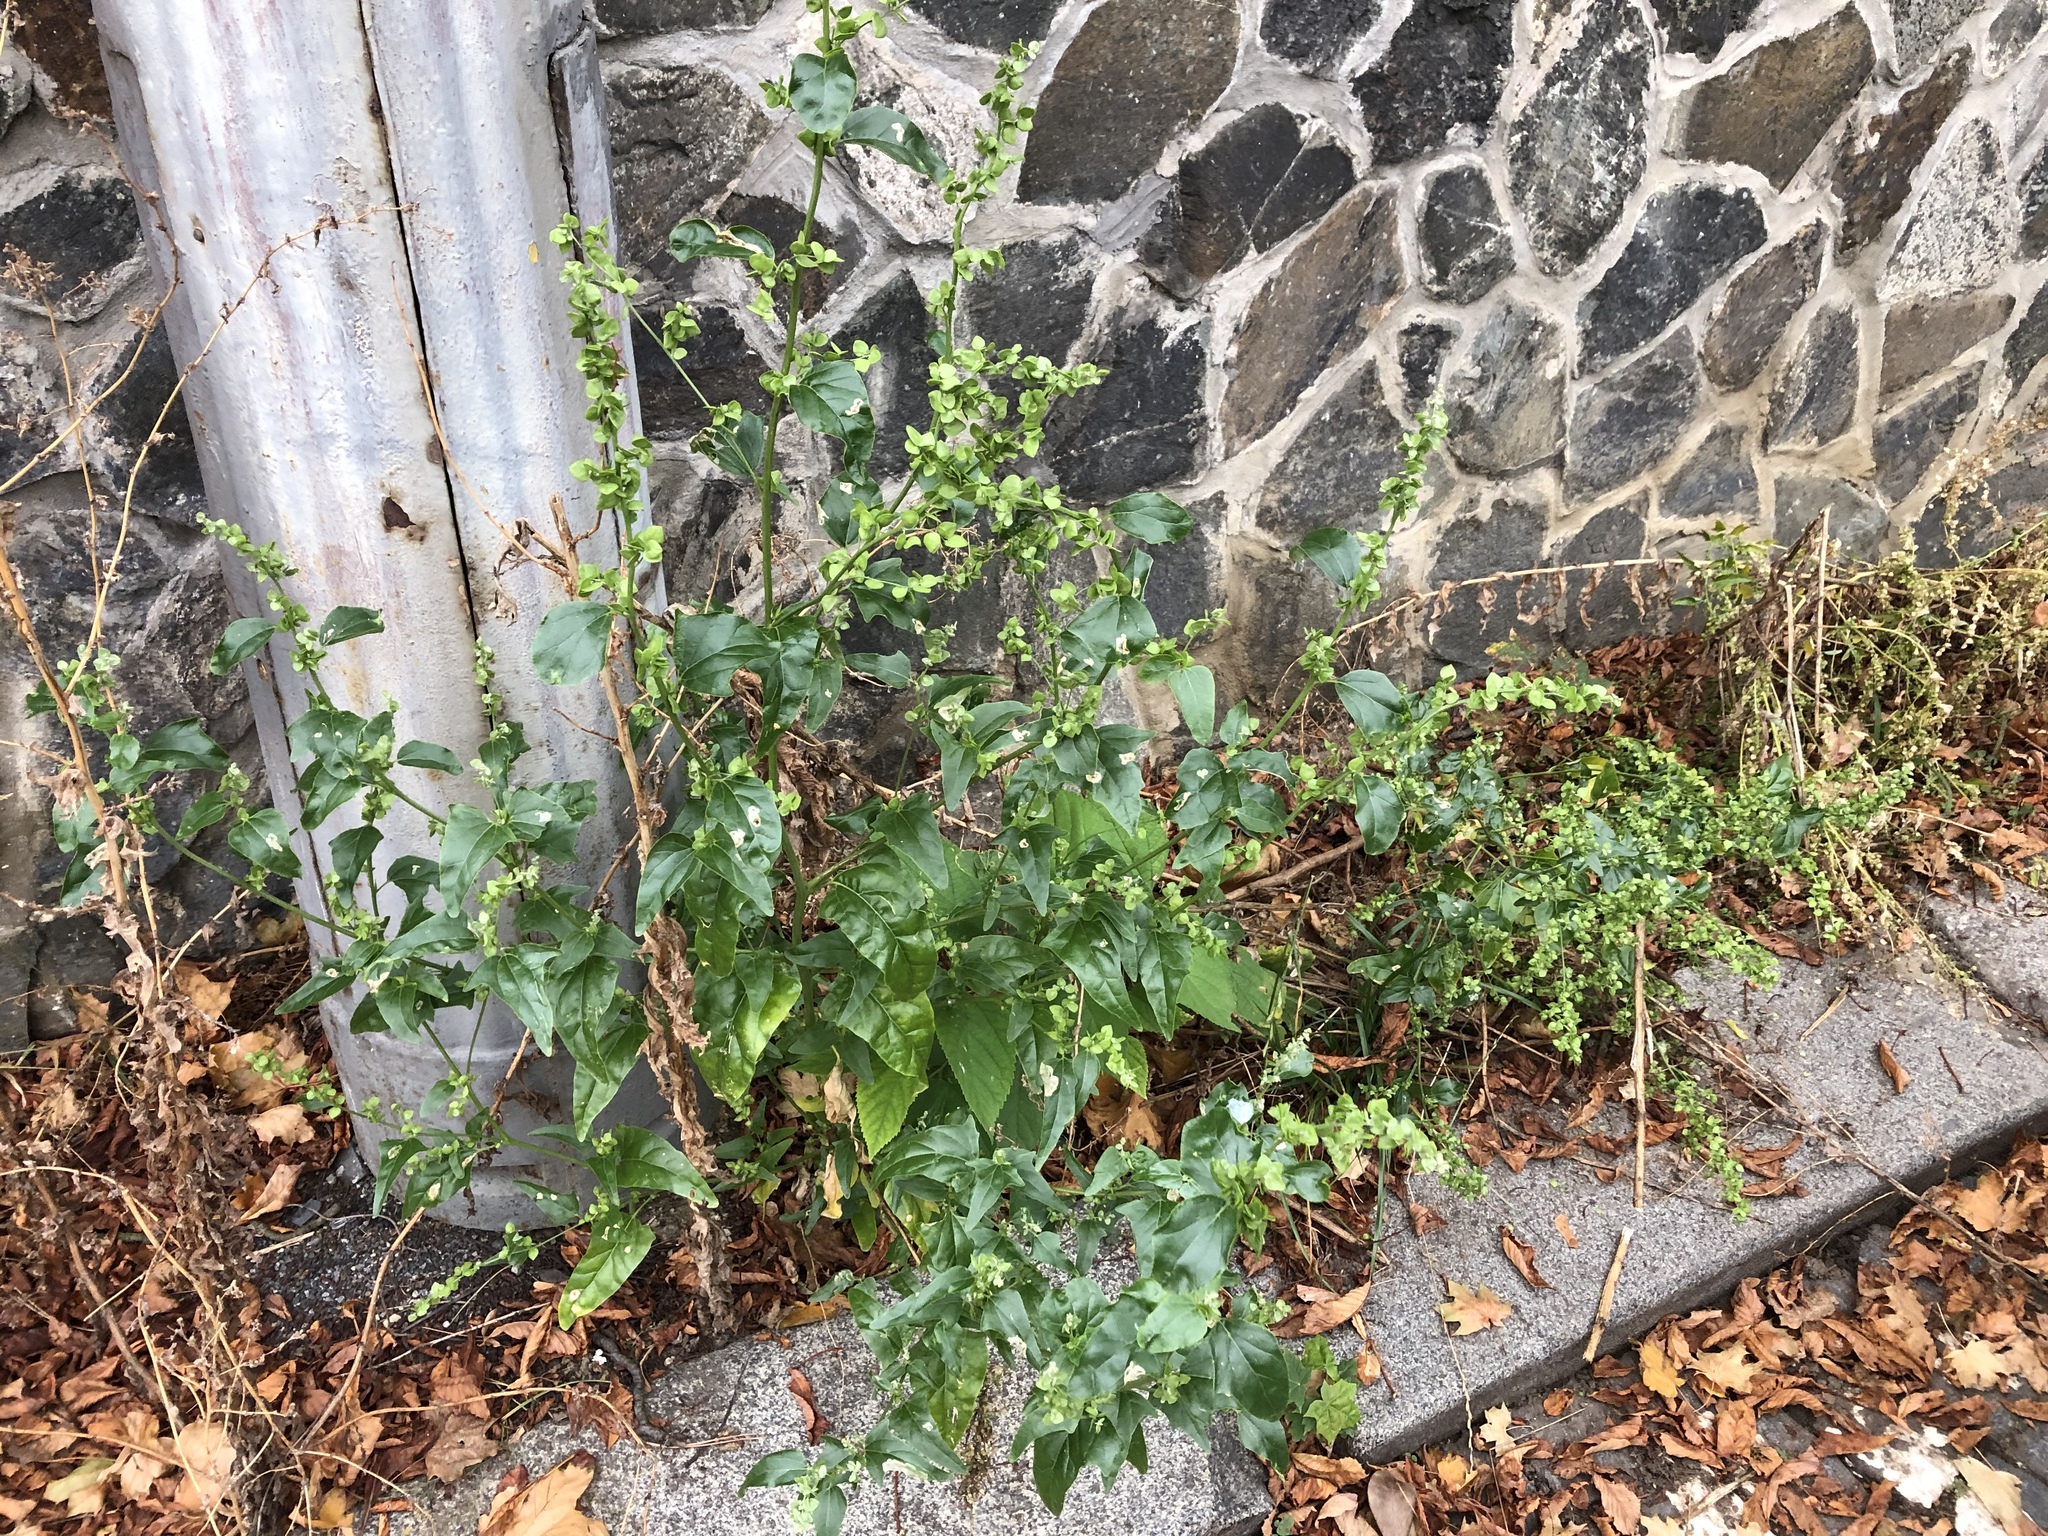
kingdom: Plantae
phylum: Tracheophyta
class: Magnoliopsida
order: Caryophyllales
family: Amaranthaceae
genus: Atriplex
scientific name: Atriplex sagittata
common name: Purple orache
